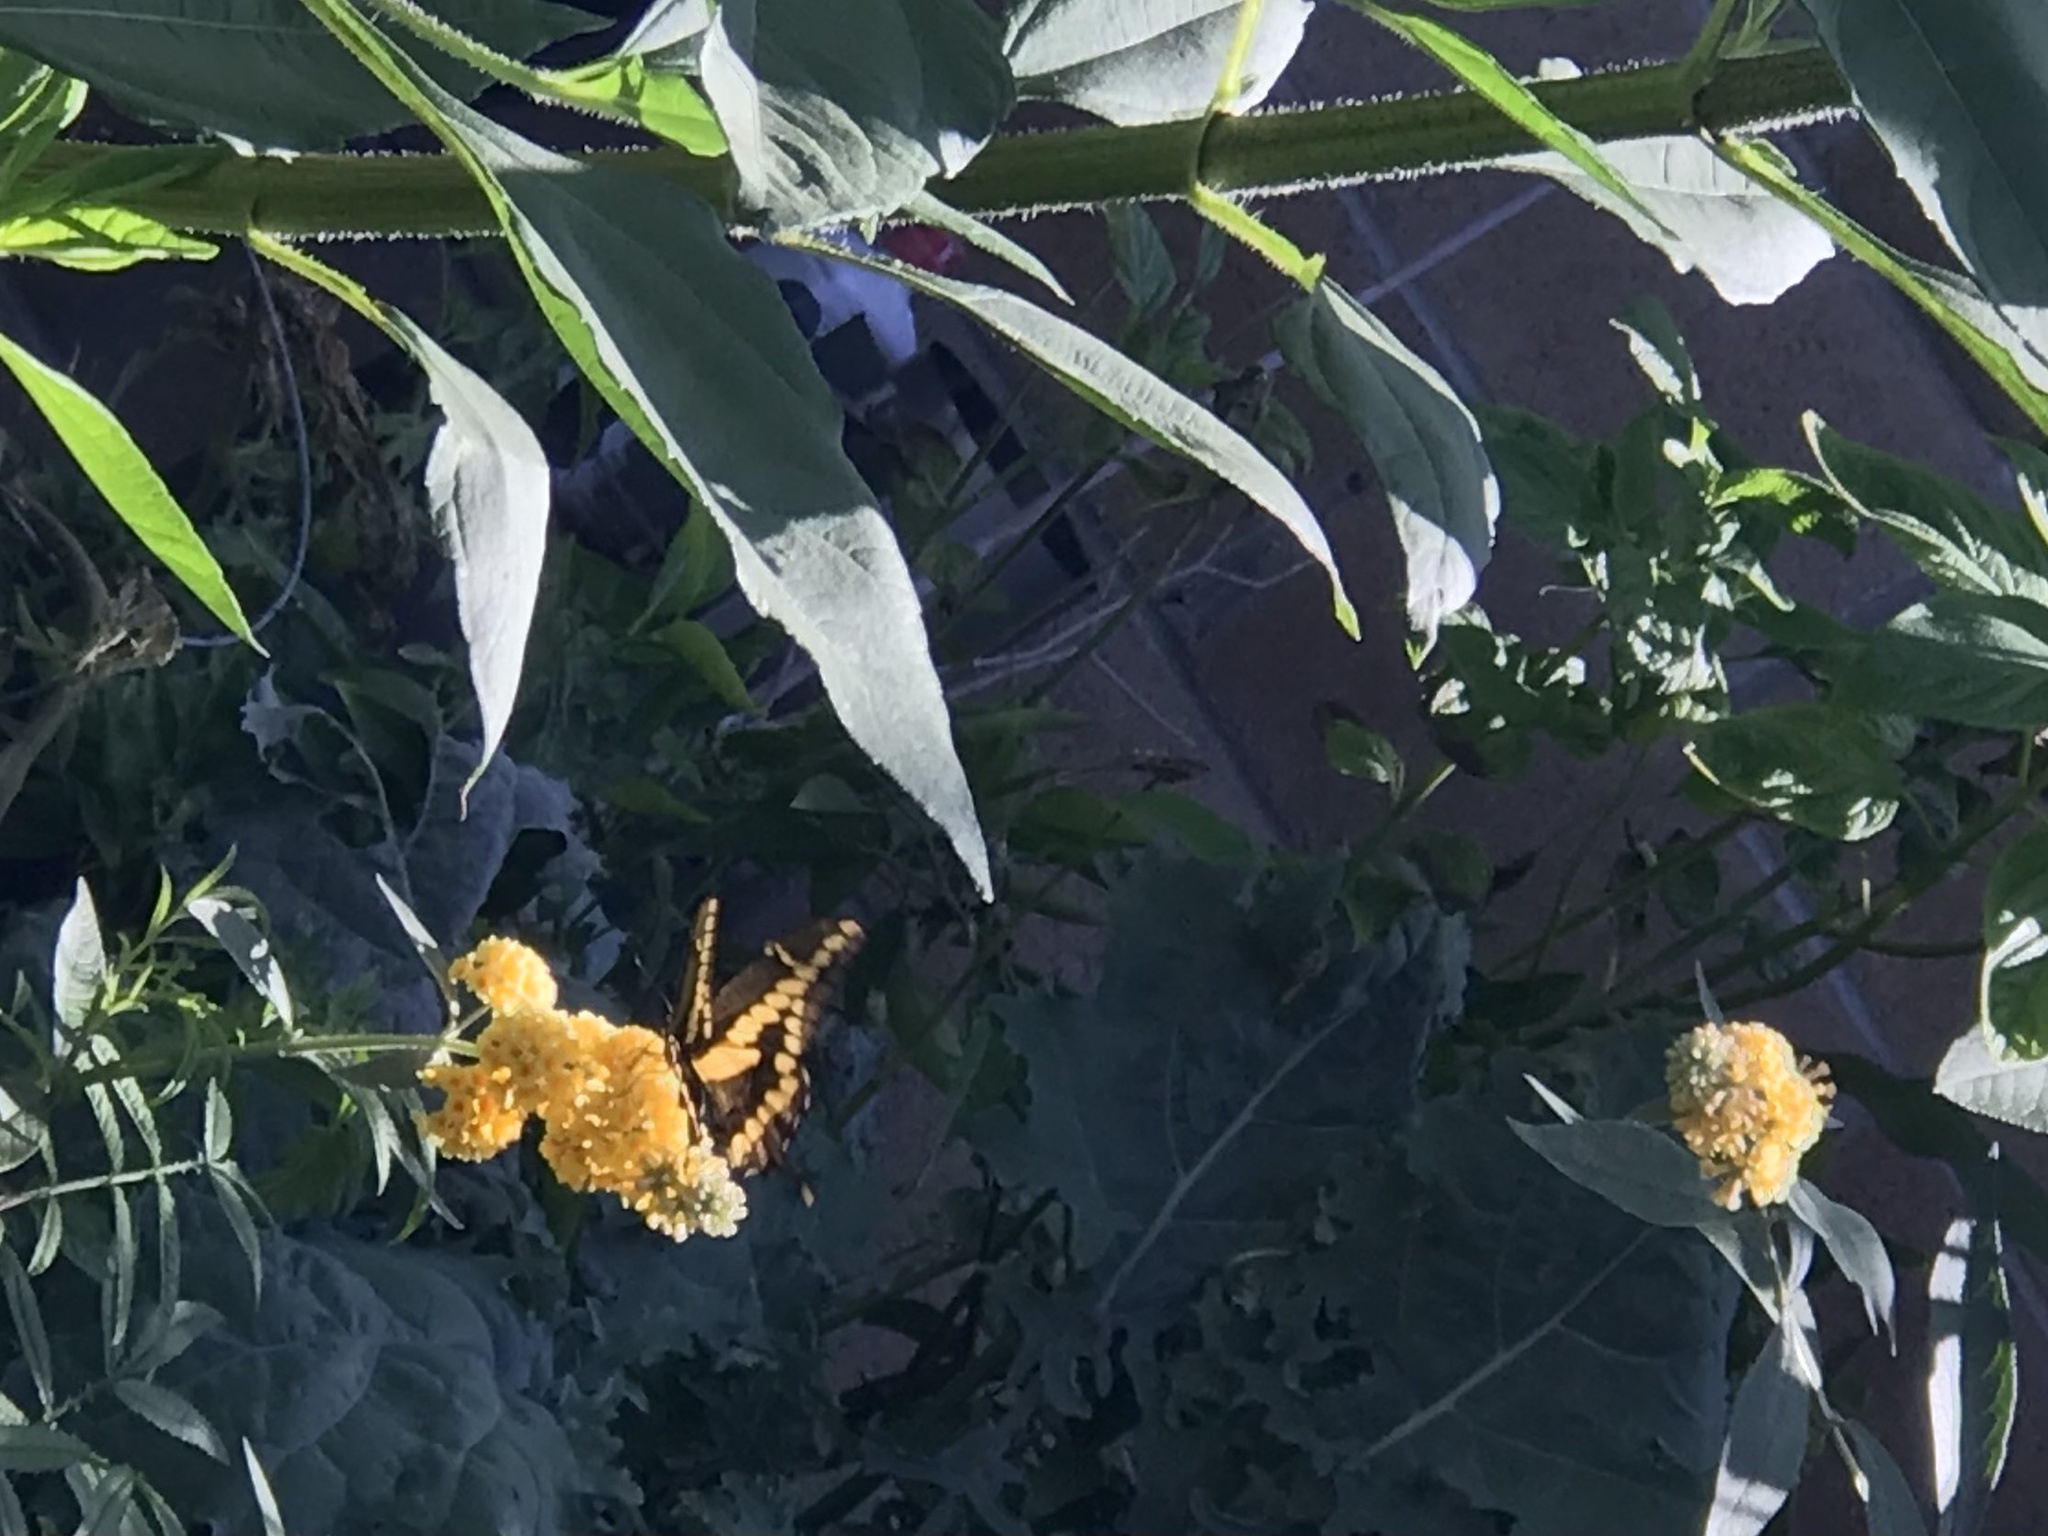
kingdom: Animalia
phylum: Arthropoda
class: Insecta
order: Lepidoptera
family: Papilionidae
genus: Papilio
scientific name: Papilio rumiko
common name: Western giant swallowtail
